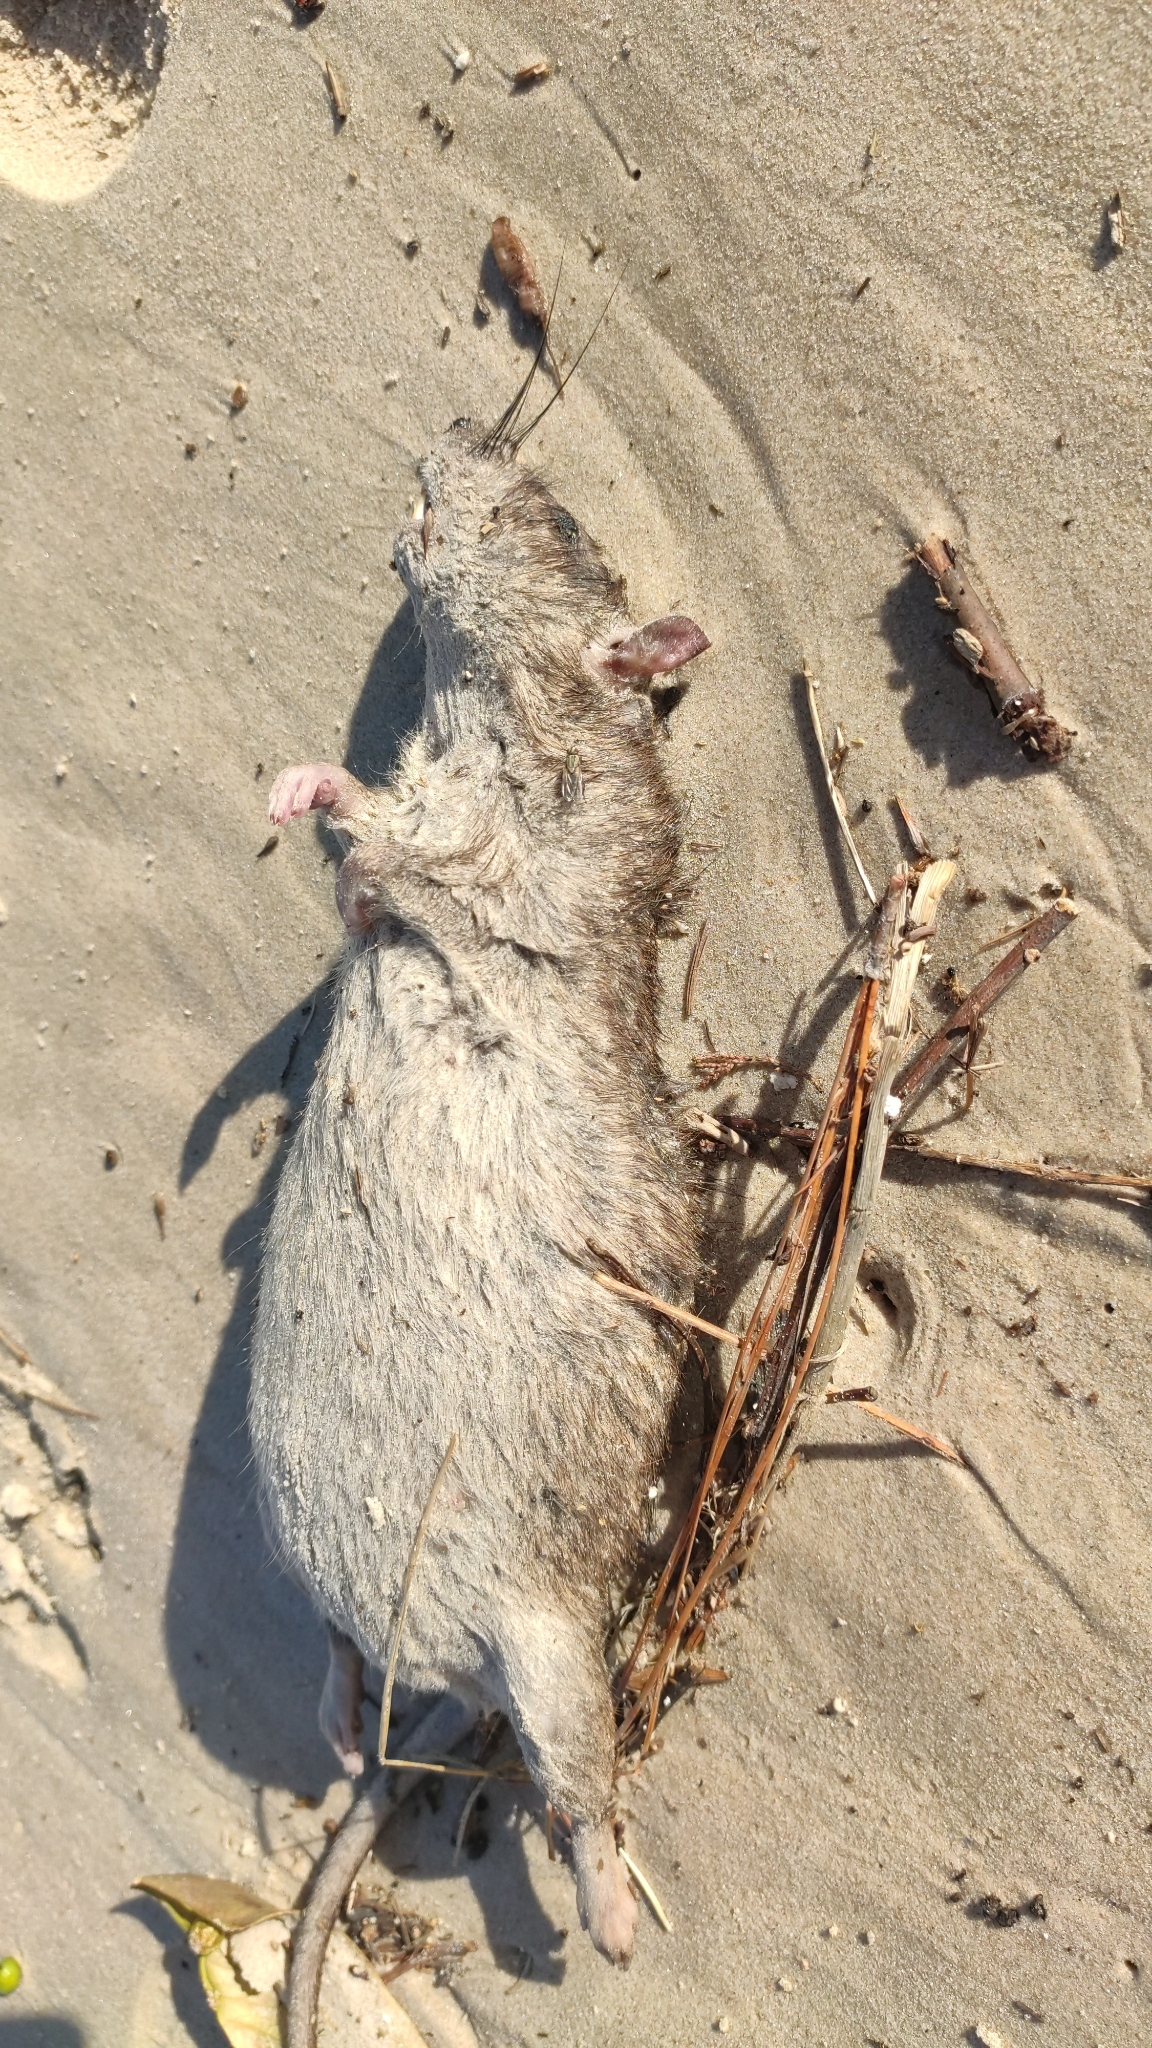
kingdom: Animalia
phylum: Chordata
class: Mammalia
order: Rodentia
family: Muridae
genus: Rattus
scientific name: Rattus norvegicus
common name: Brown rat
